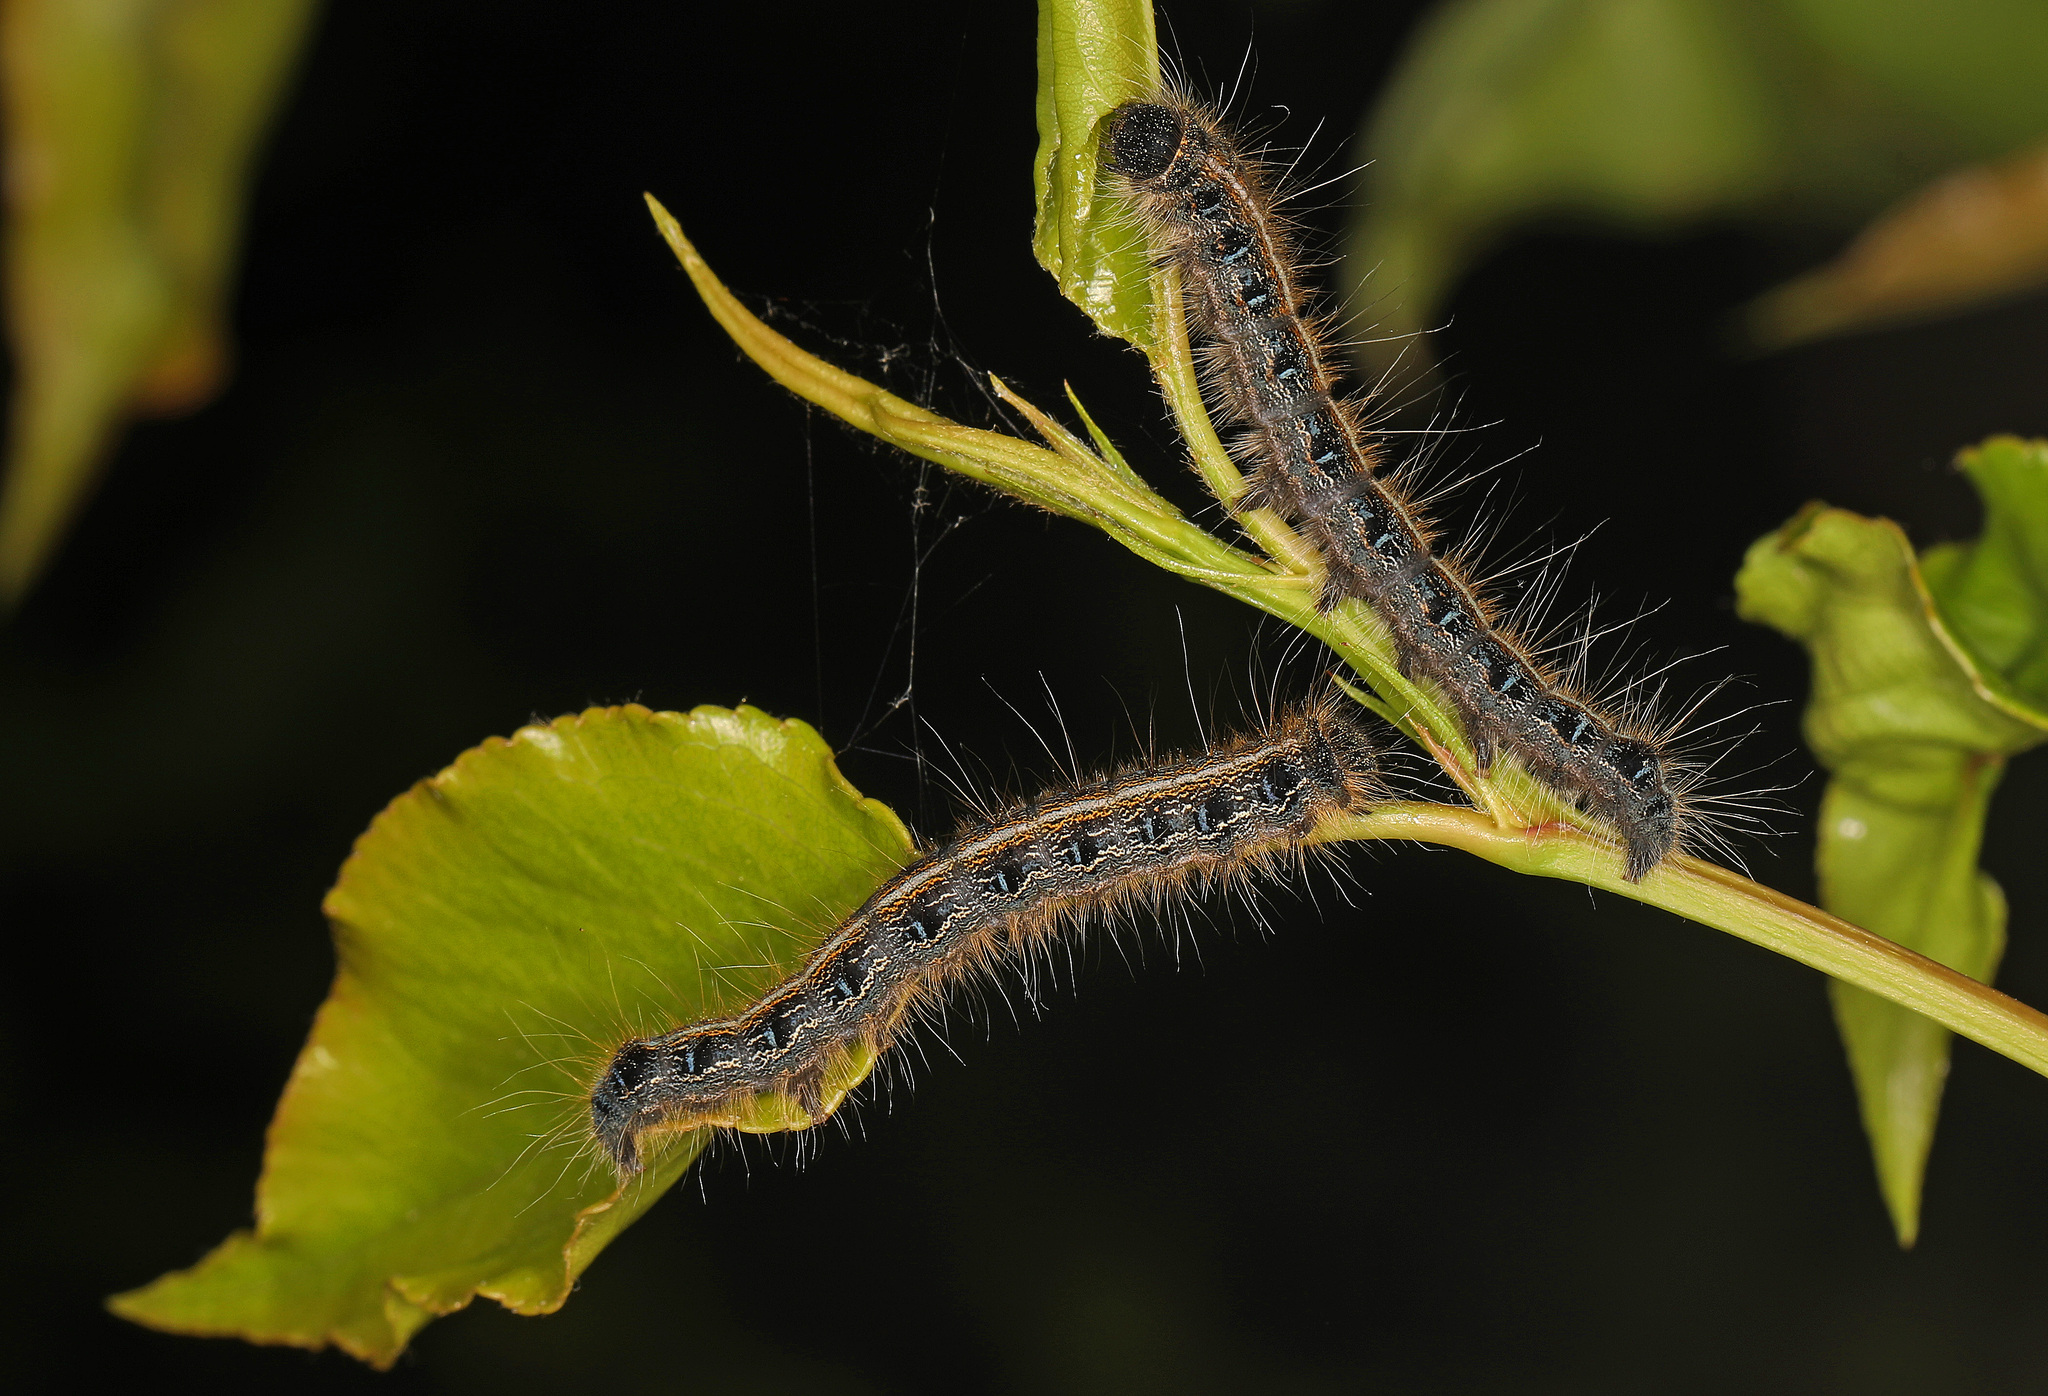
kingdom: Animalia
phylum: Arthropoda
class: Insecta
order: Lepidoptera
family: Lasiocampidae
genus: Malacosoma
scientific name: Malacosoma americana
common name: Eastern tent caterpillar moth
